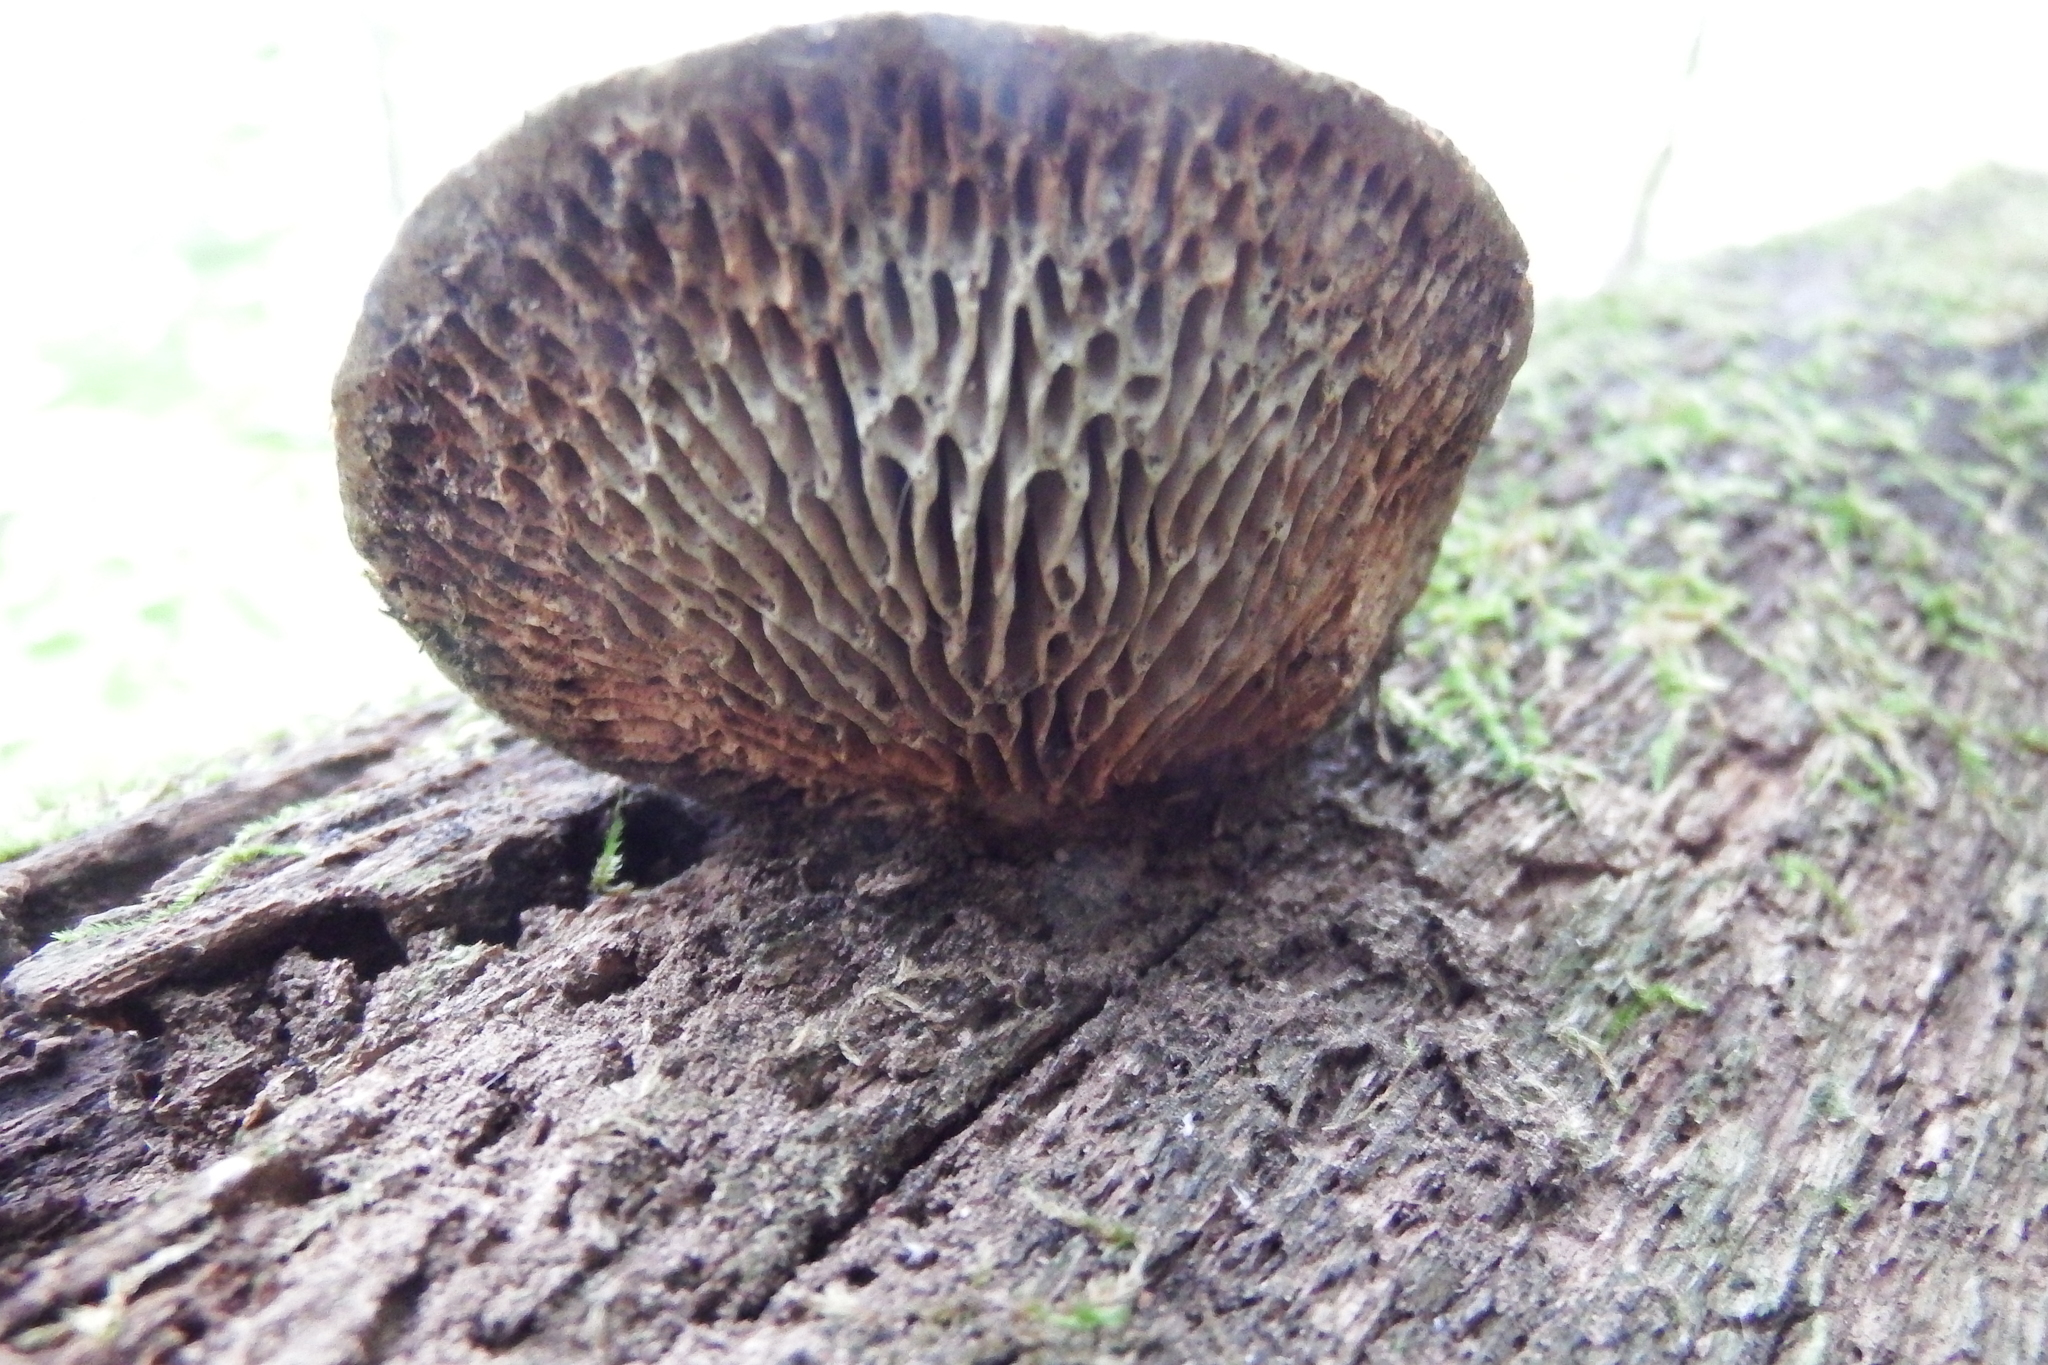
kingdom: Fungi
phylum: Basidiomycota
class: Agaricomycetes
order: Polyporales
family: Fomitopsidaceae
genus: Fomitopsis
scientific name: Fomitopsis
